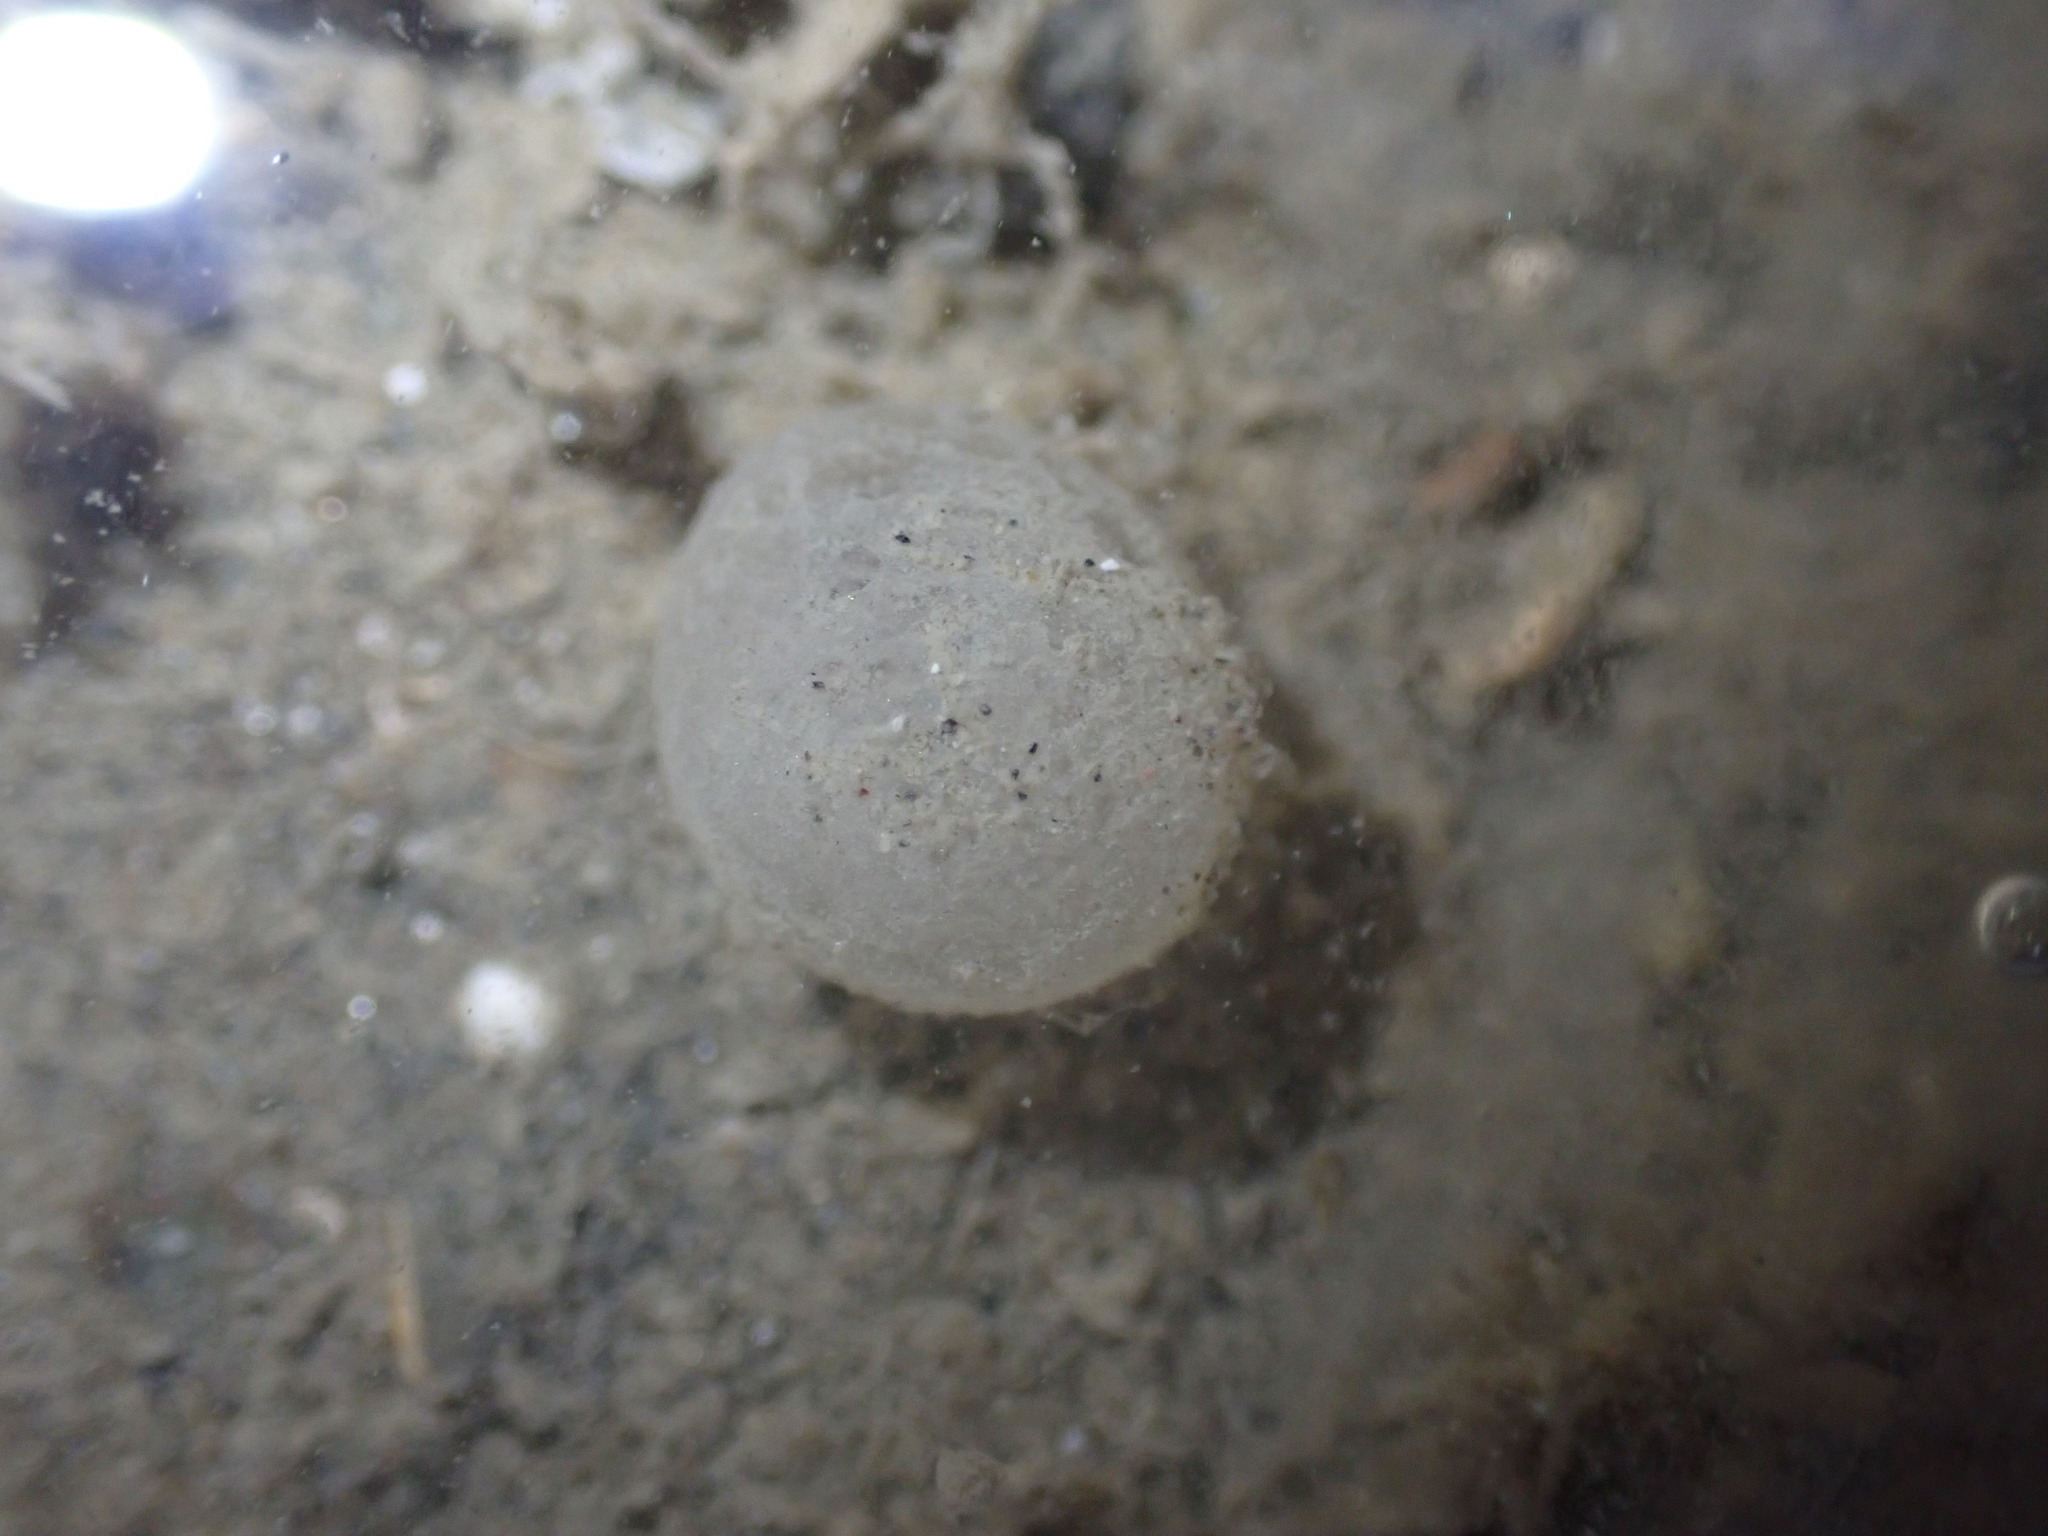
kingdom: Animalia
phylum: Mollusca
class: Gastropoda
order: Cephalaspidea
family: Aglajidae
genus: Melanochlamys
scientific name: Melanochlamys cylindrica
